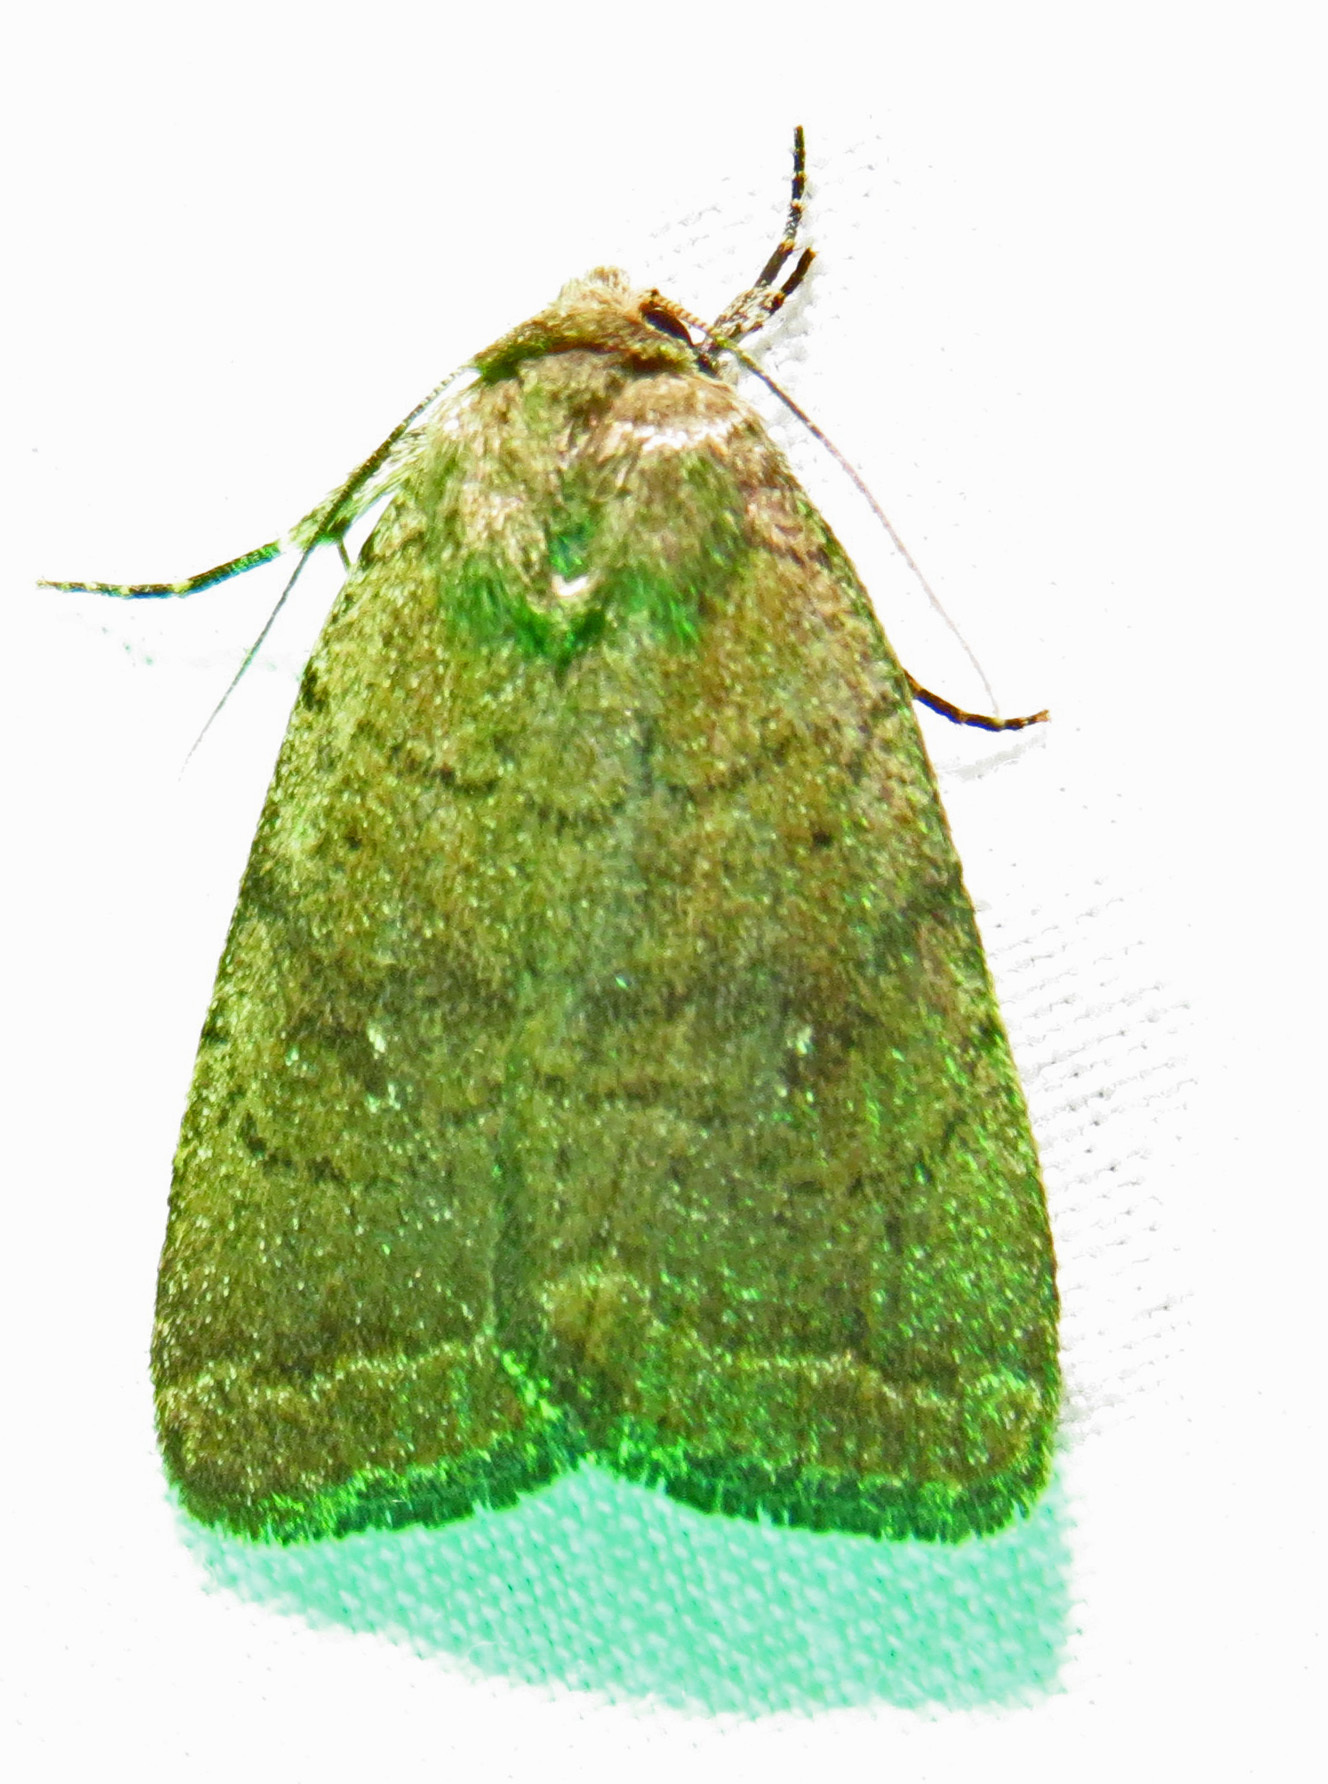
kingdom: Animalia
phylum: Arthropoda
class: Insecta
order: Lepidoptera
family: Noctuidae
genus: Athetis
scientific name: Athetis tarda
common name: Slowpoke moth
